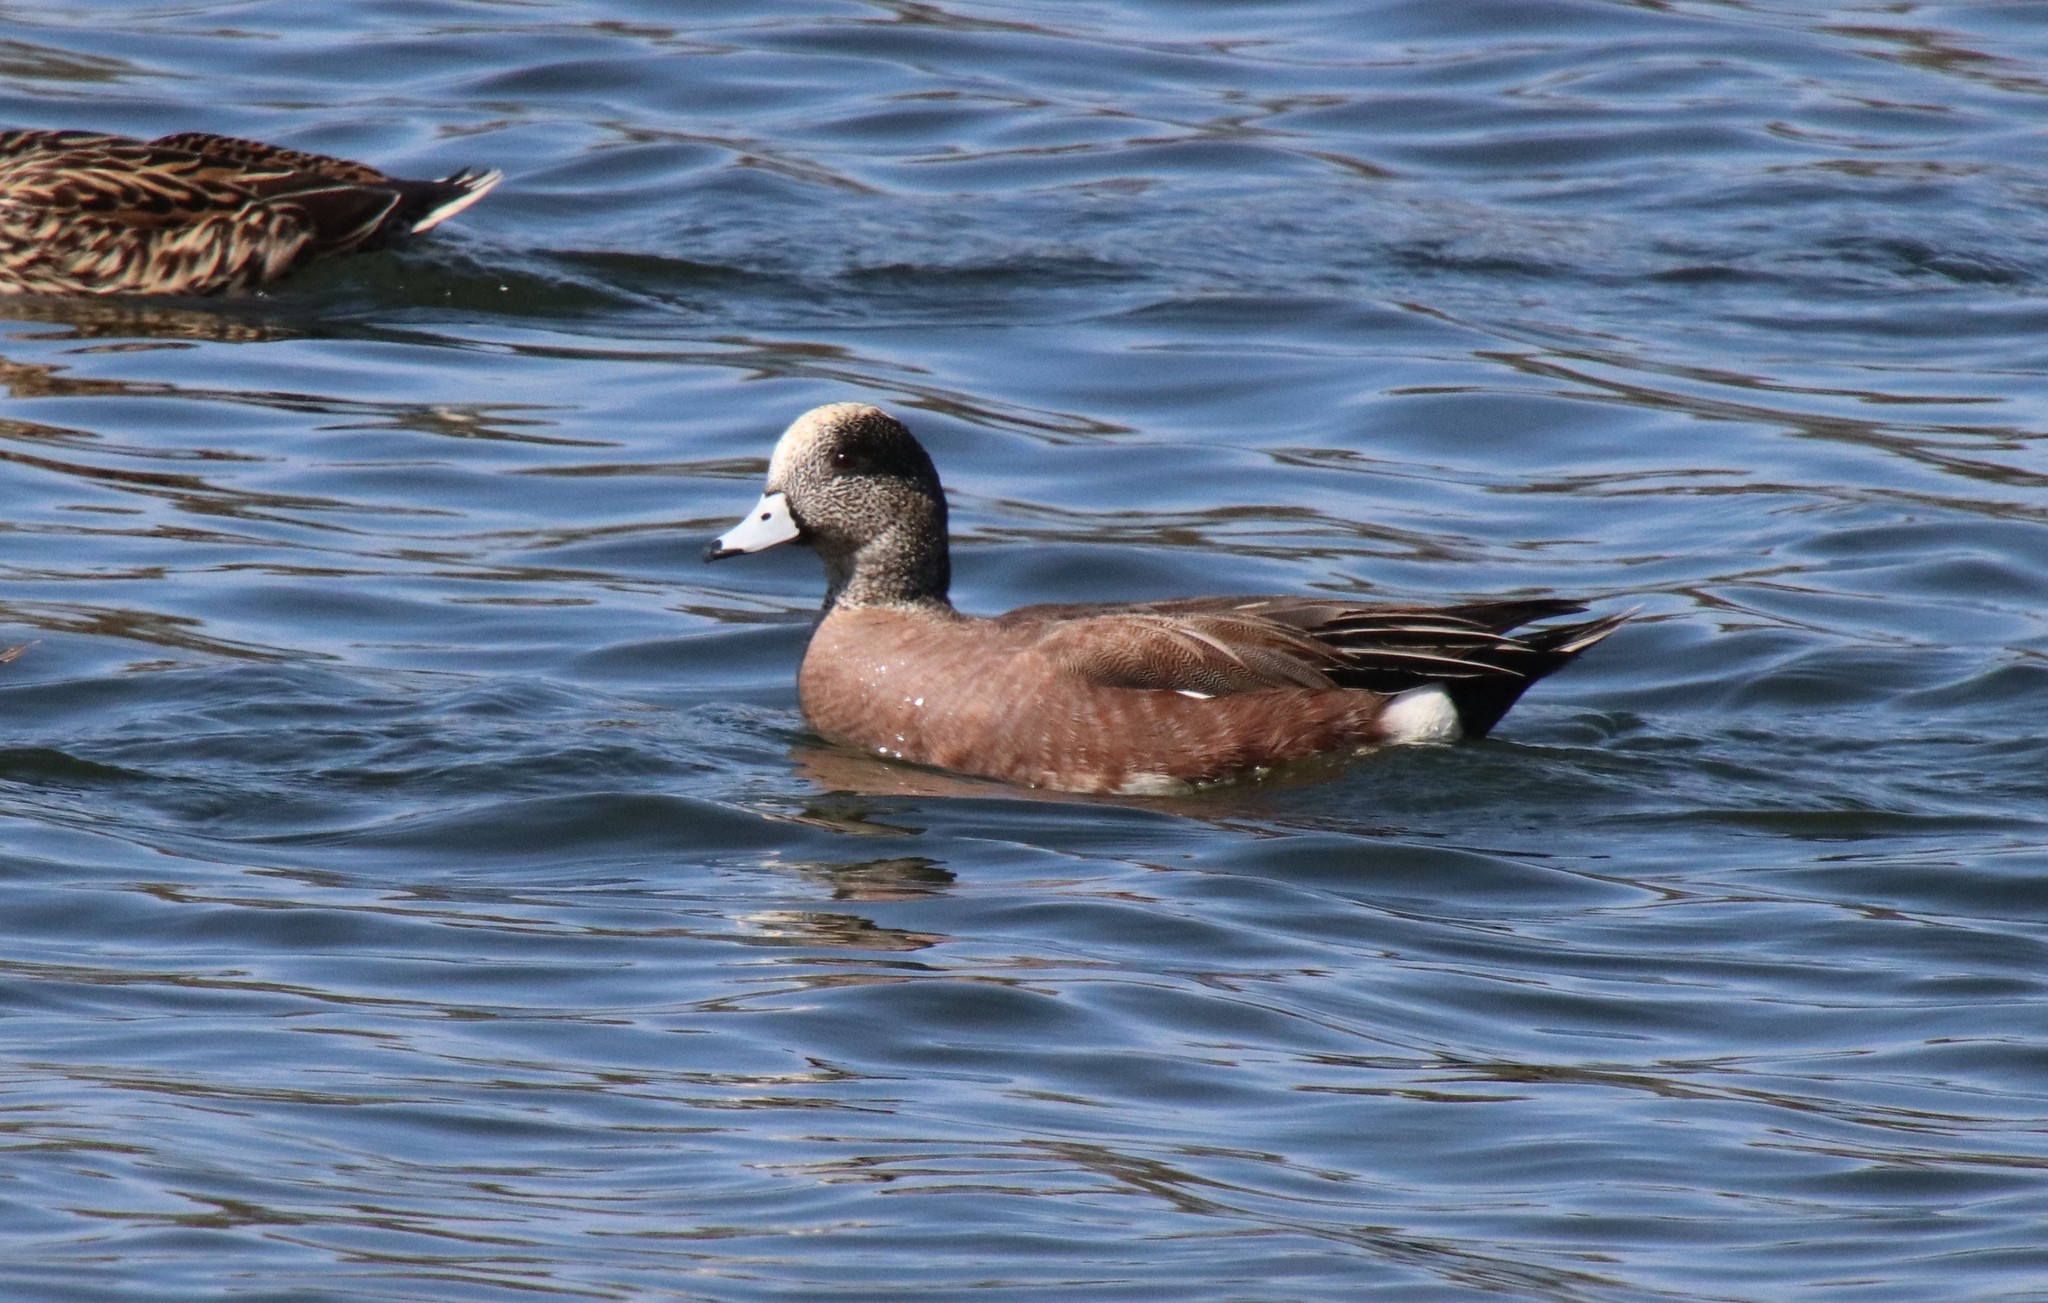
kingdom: Animalia
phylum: Chordata
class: Aves
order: Anseriformes
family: Anatidae
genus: Mareca
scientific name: Mareca americana
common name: American wigeon
